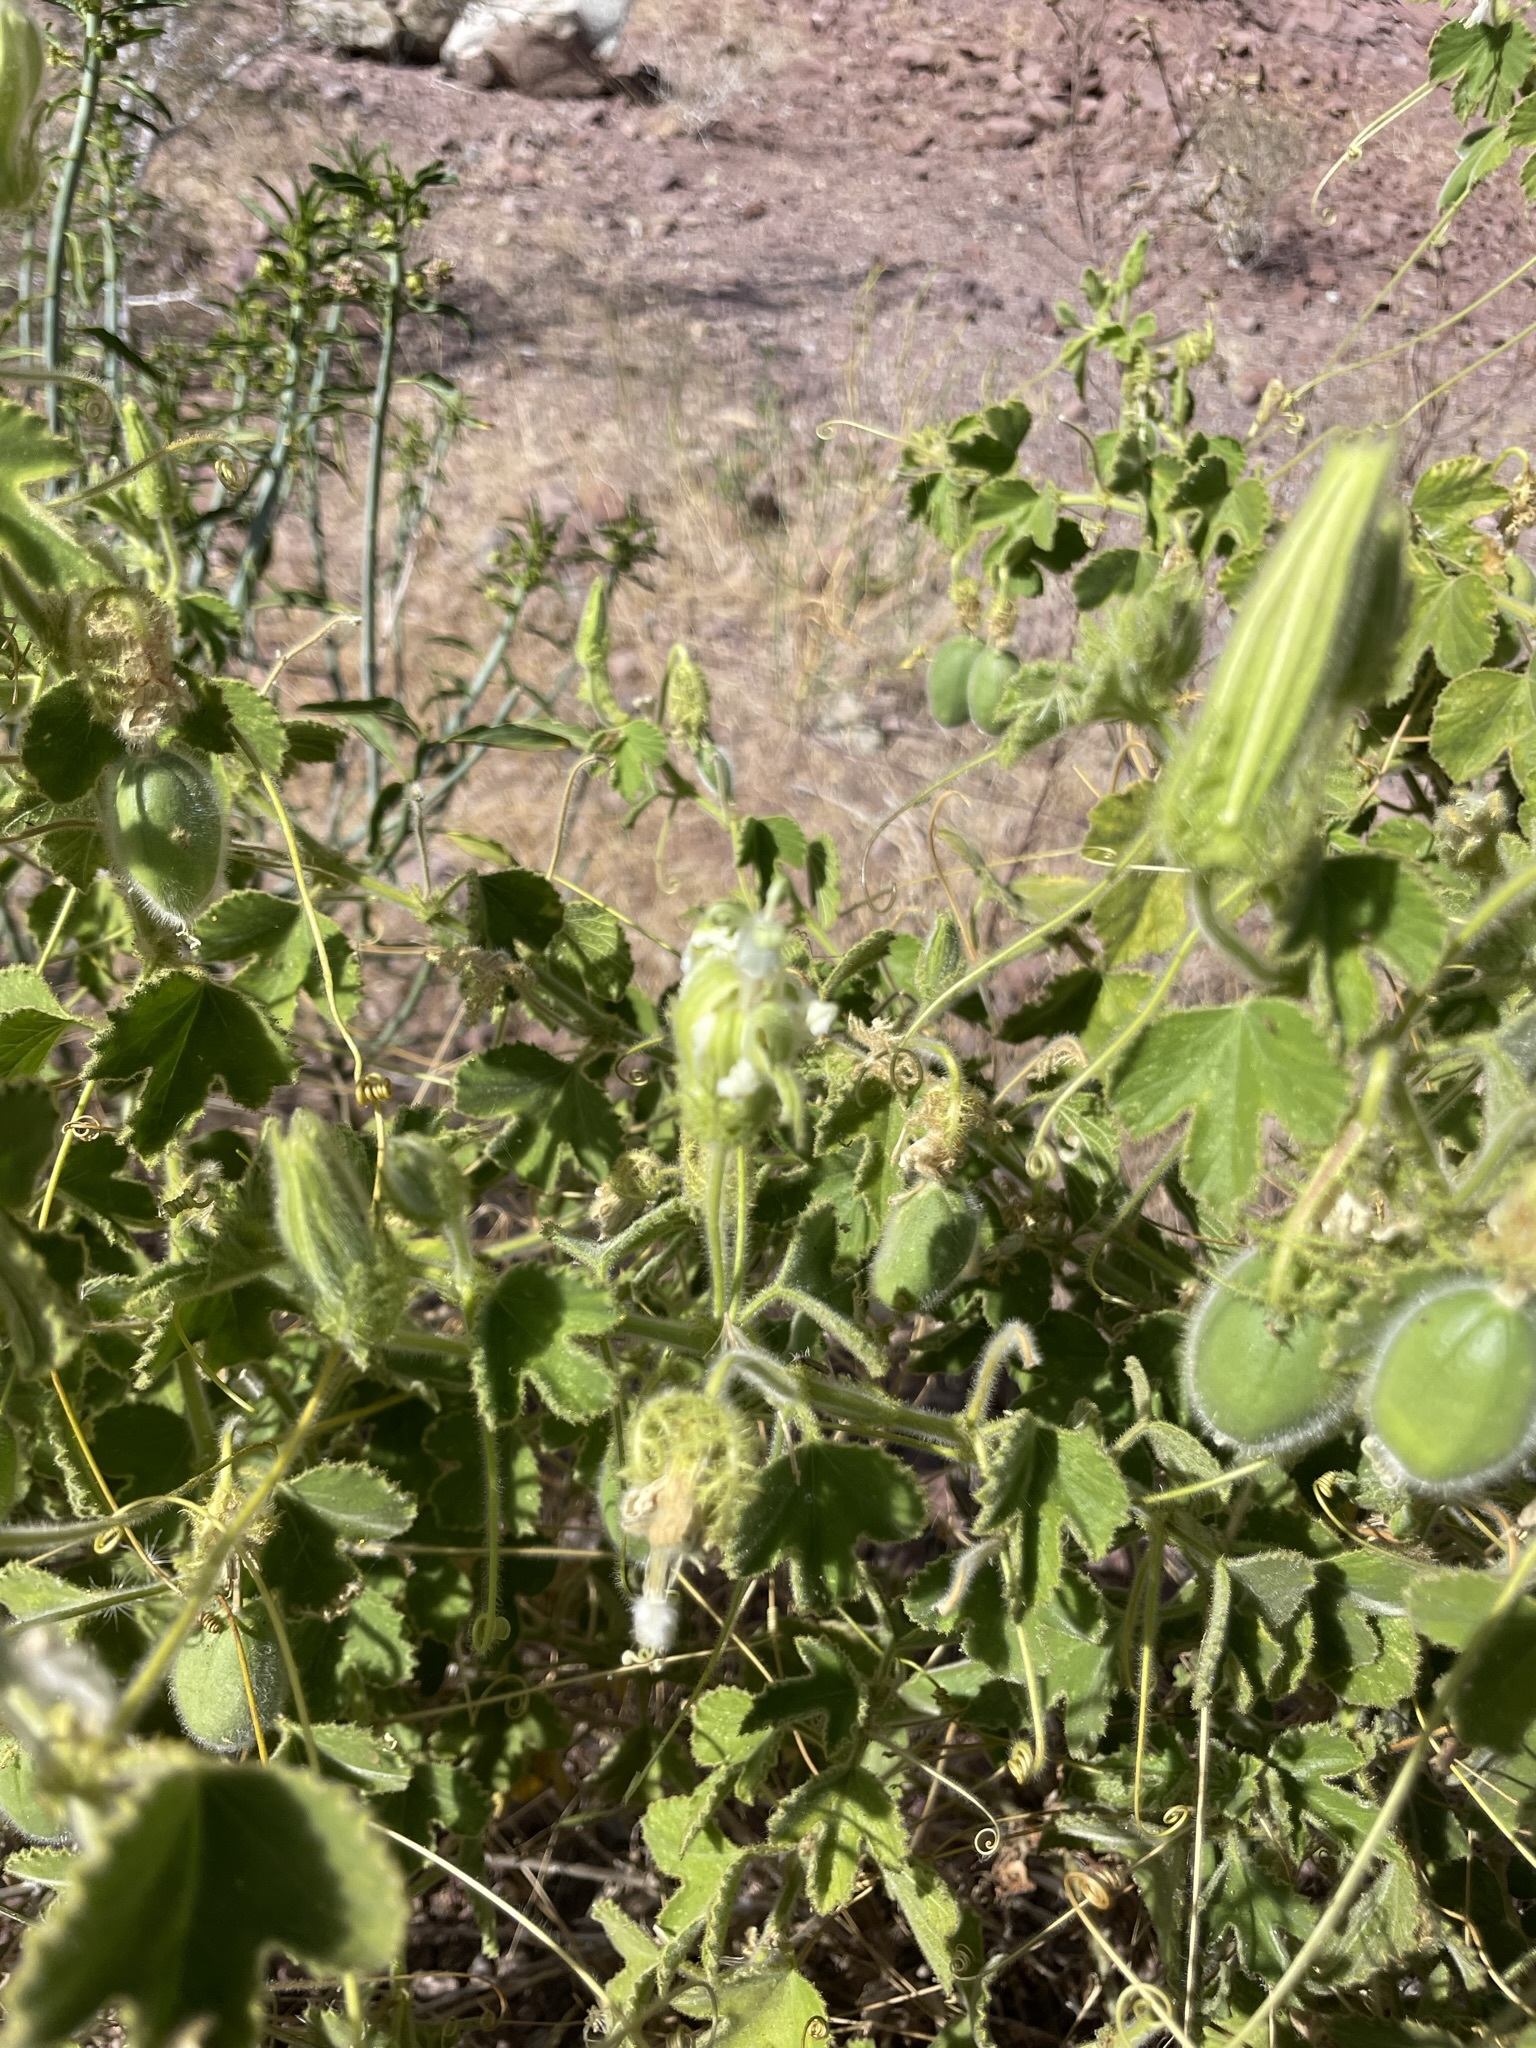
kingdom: Plantae
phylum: Tracheophyta
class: Magnoliopsida
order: Malpighiales
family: Passifloraceae
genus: Passiflora
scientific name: Passiflora palmeri
